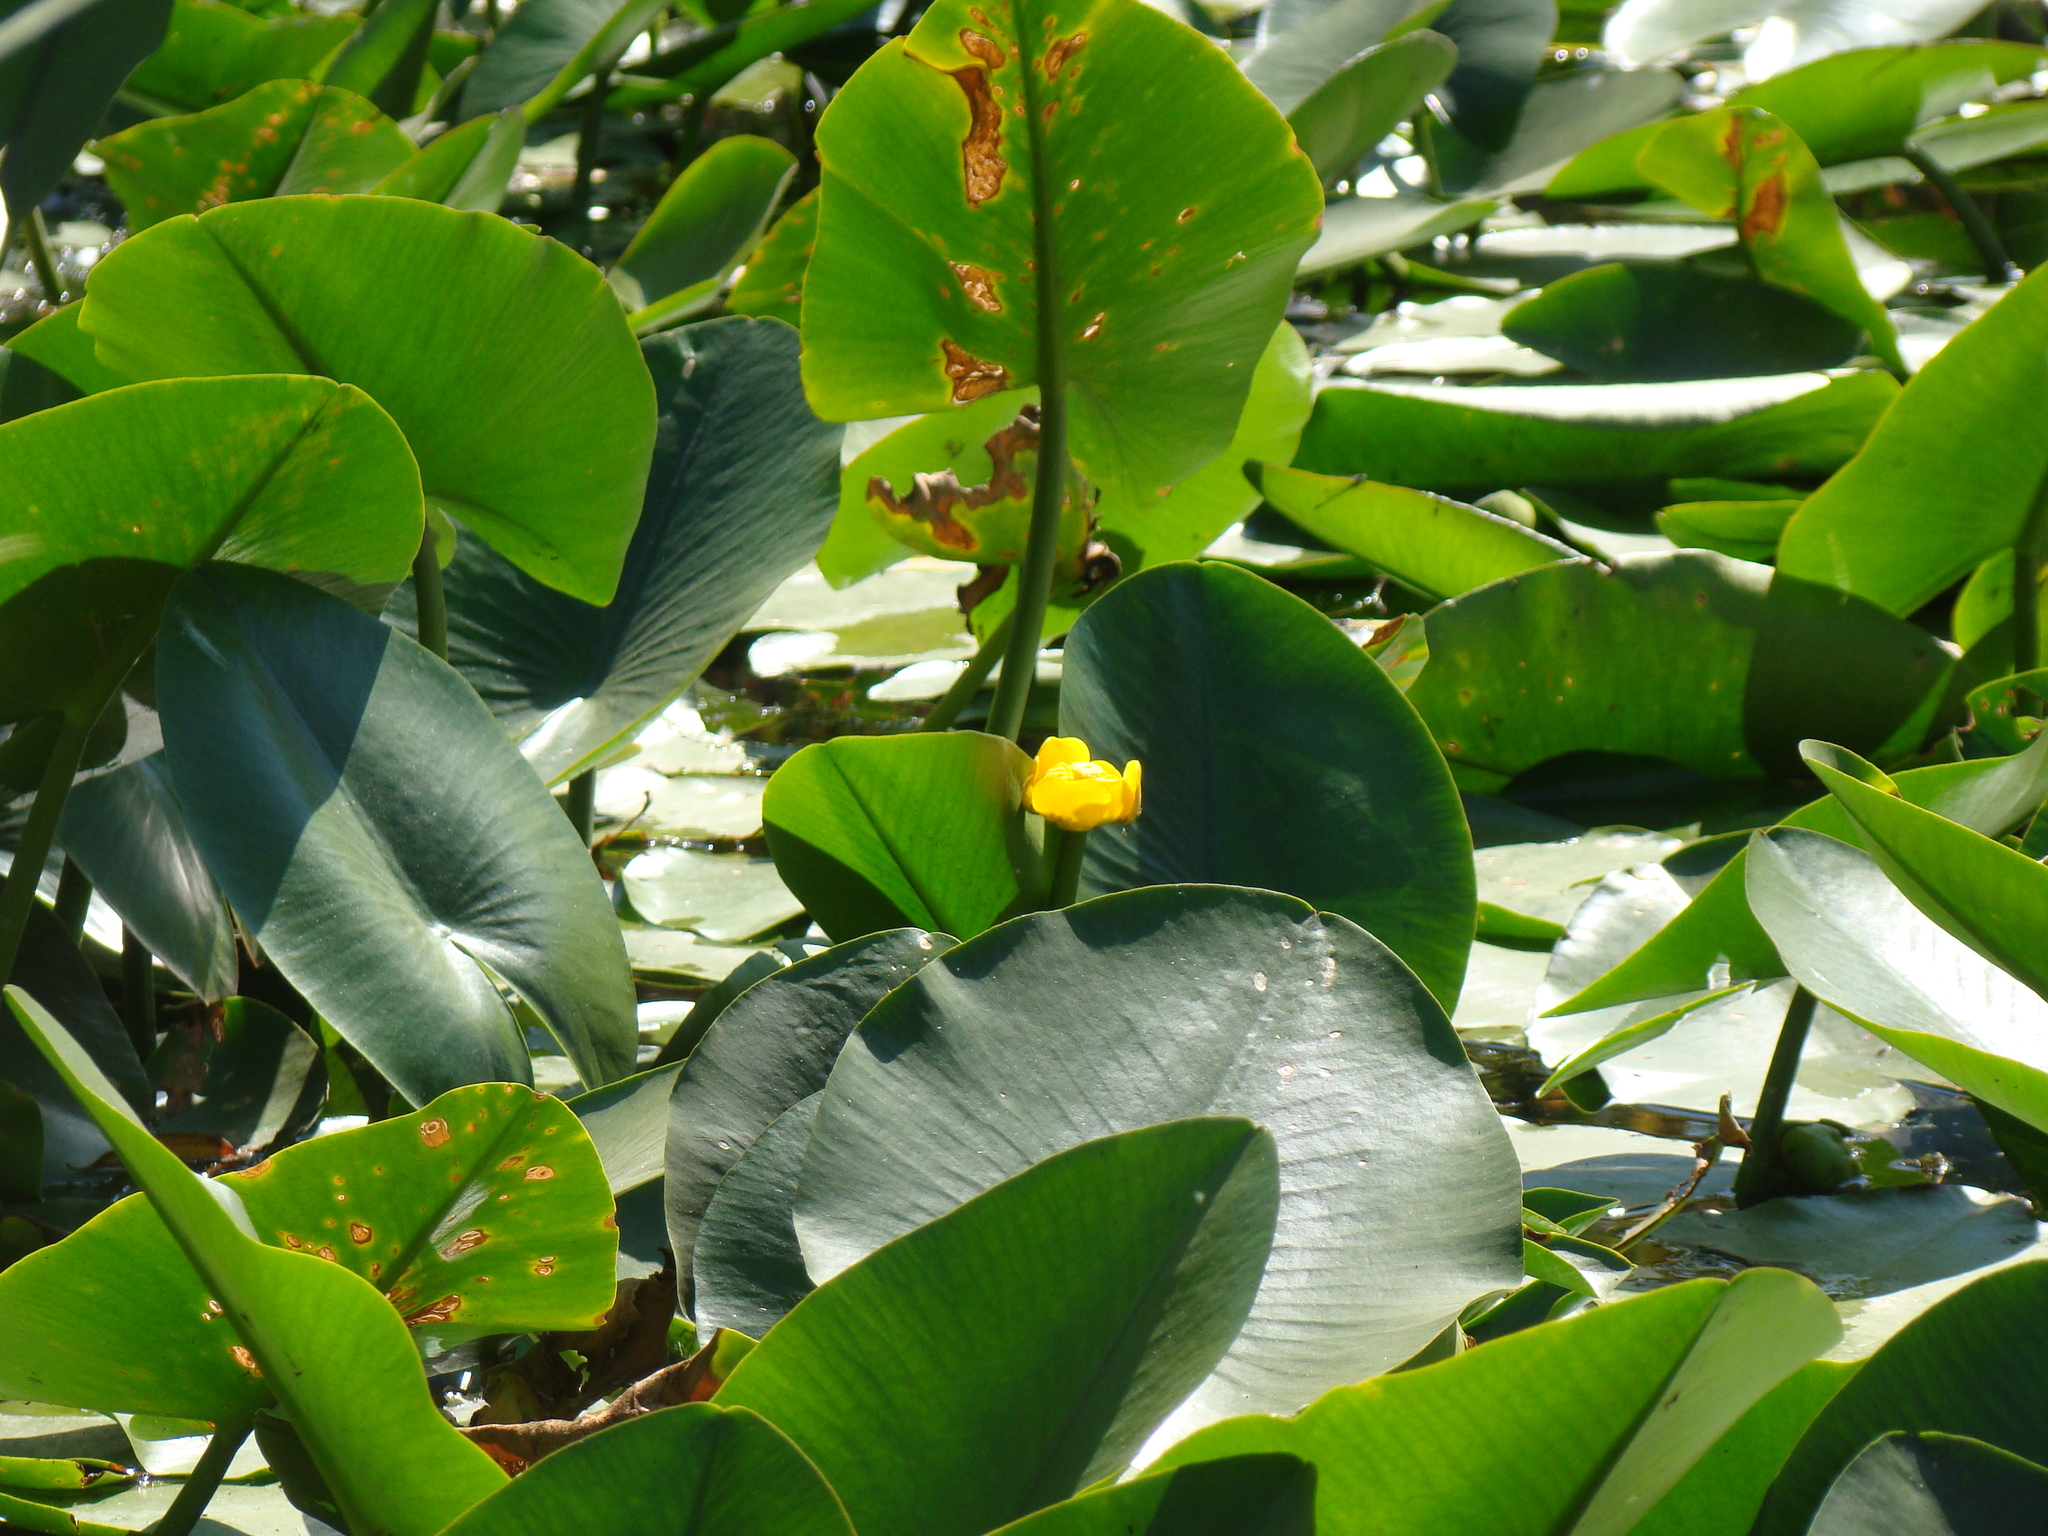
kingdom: Plantae
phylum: Tracheophyta
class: Magnoliopsida
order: Nymphaeales
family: Nymphaeaceae
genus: Nuphar
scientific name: Nuphar lutea
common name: Yellow water-lily
